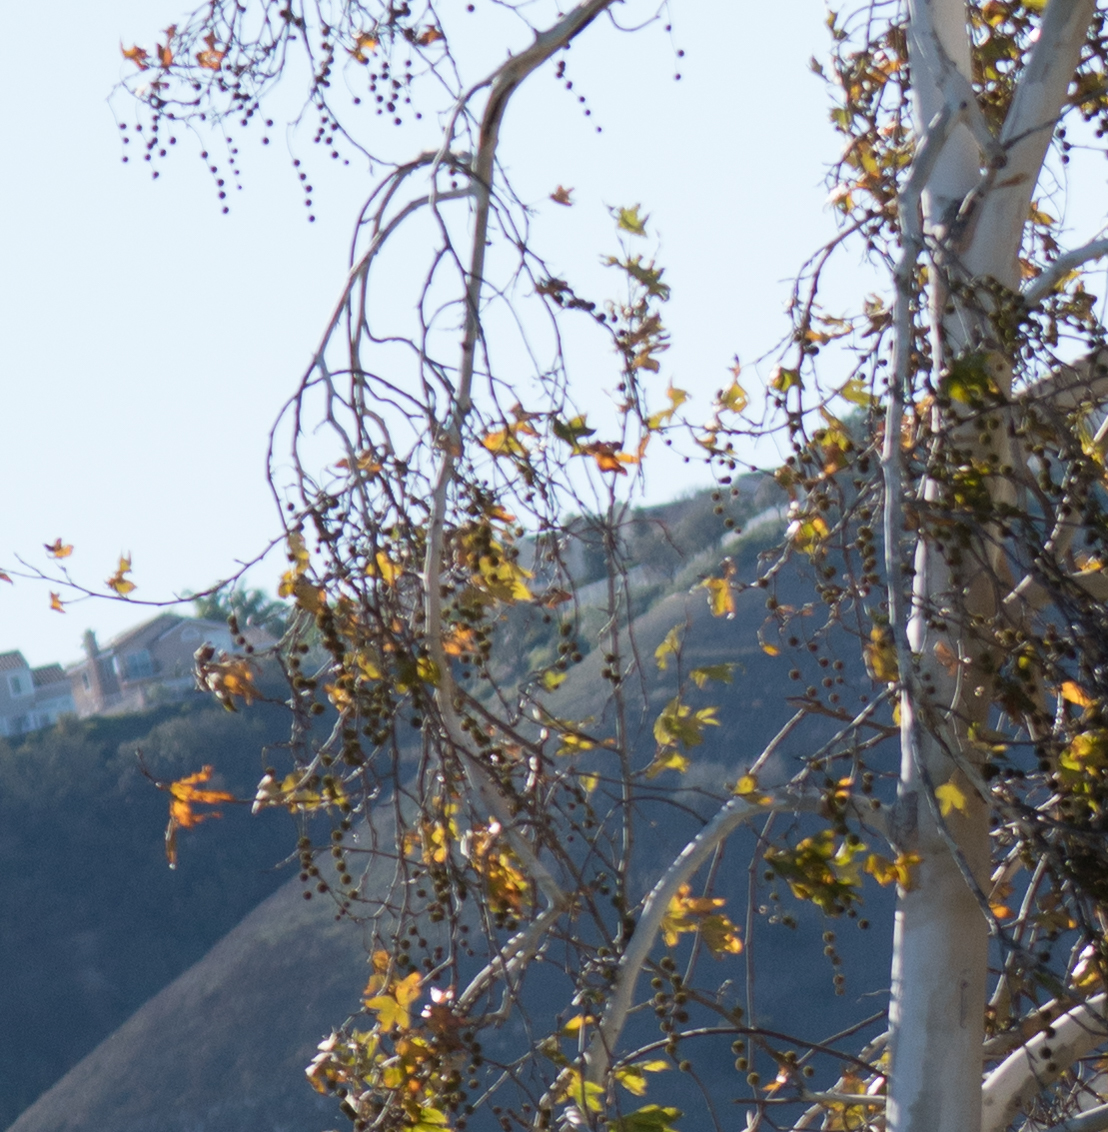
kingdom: Plantae
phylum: Tracheophyta
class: Magnoliopsida
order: Proteales
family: Platanaceae
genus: Platanus
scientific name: Platanus racemosa
